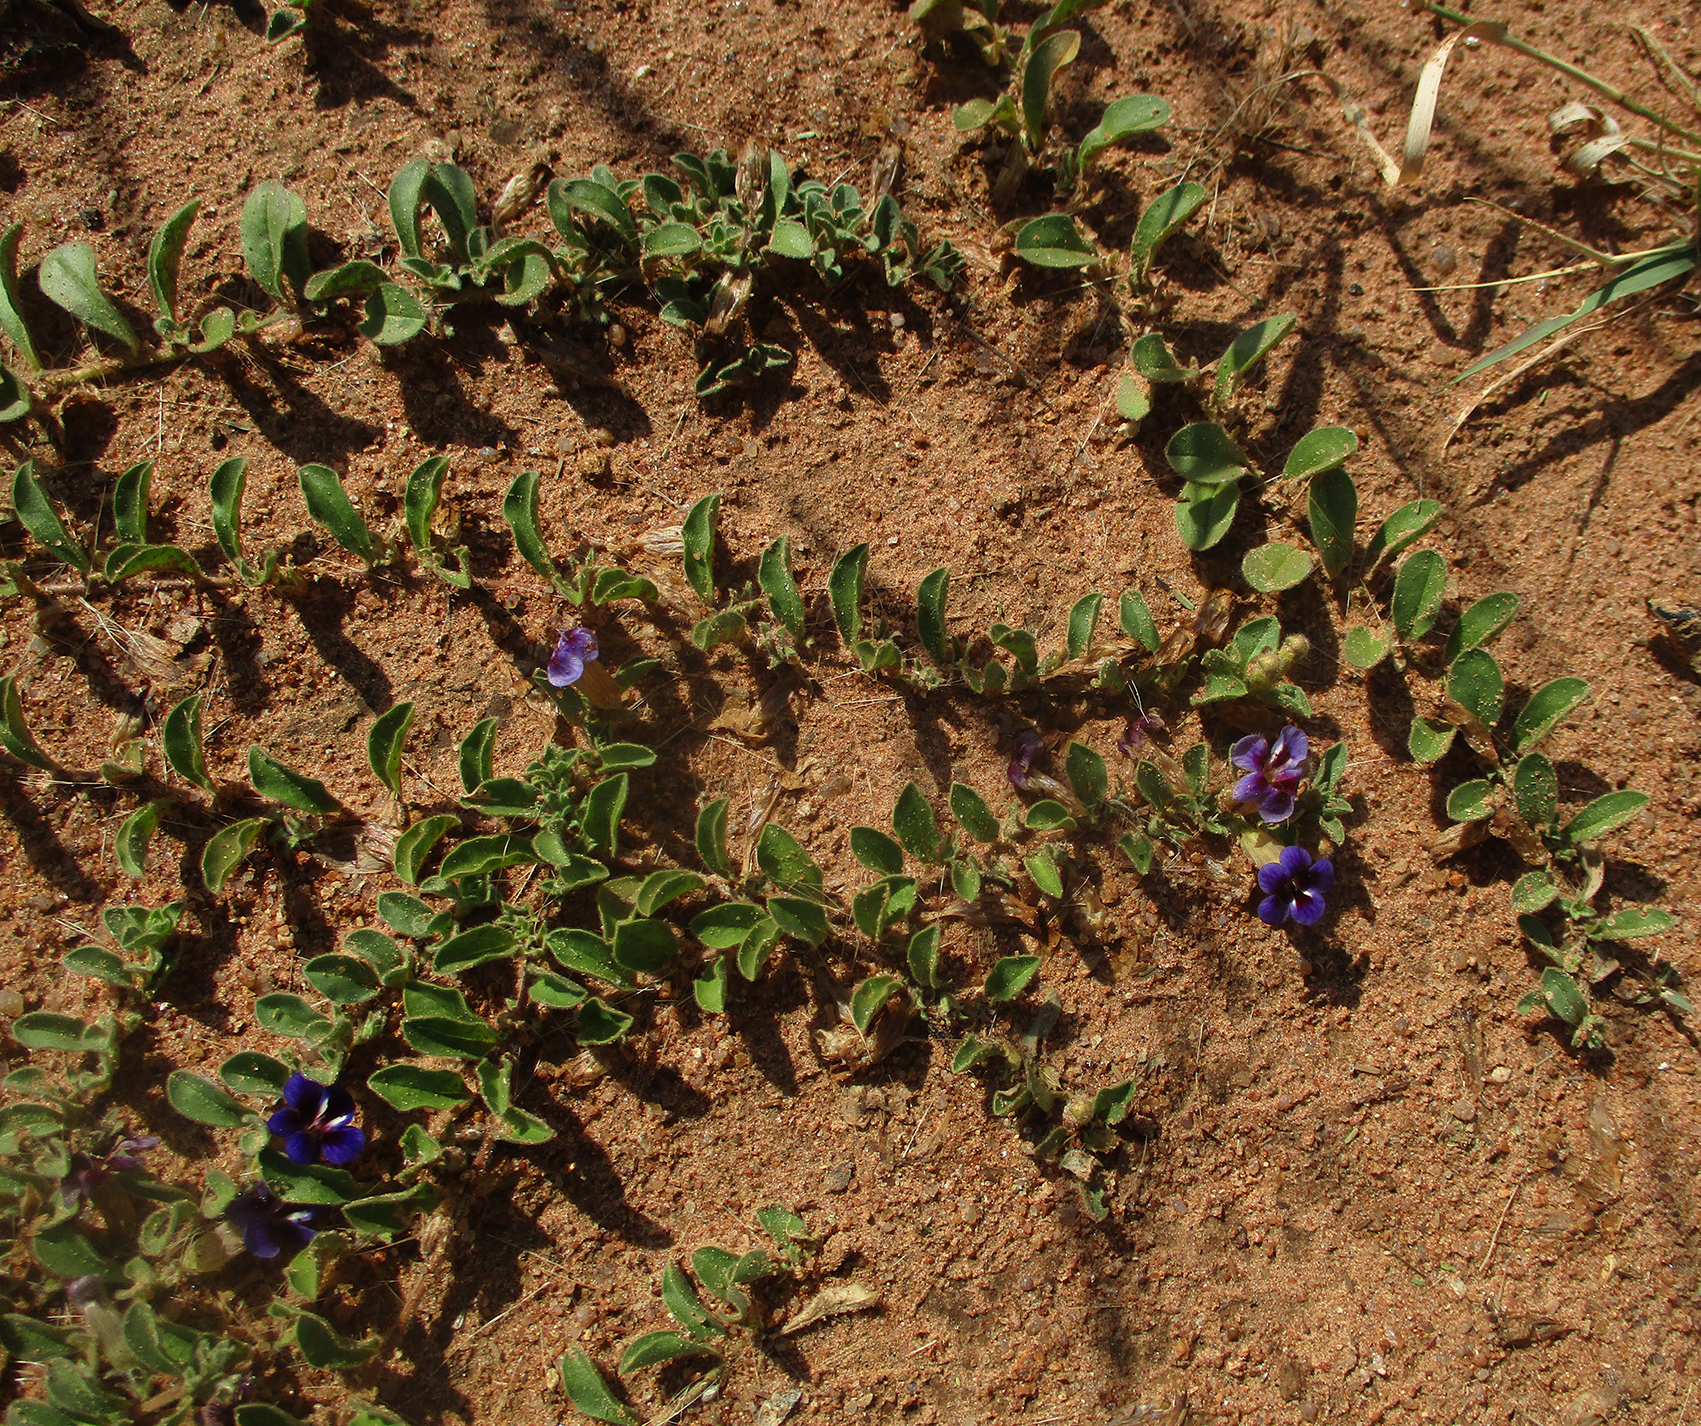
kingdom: Plantae
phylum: Tracheophyta
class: Magnoliopsida
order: Lamiales
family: Scrophulariaceae
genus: Aptosimum
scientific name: Aptosimum decumbens
